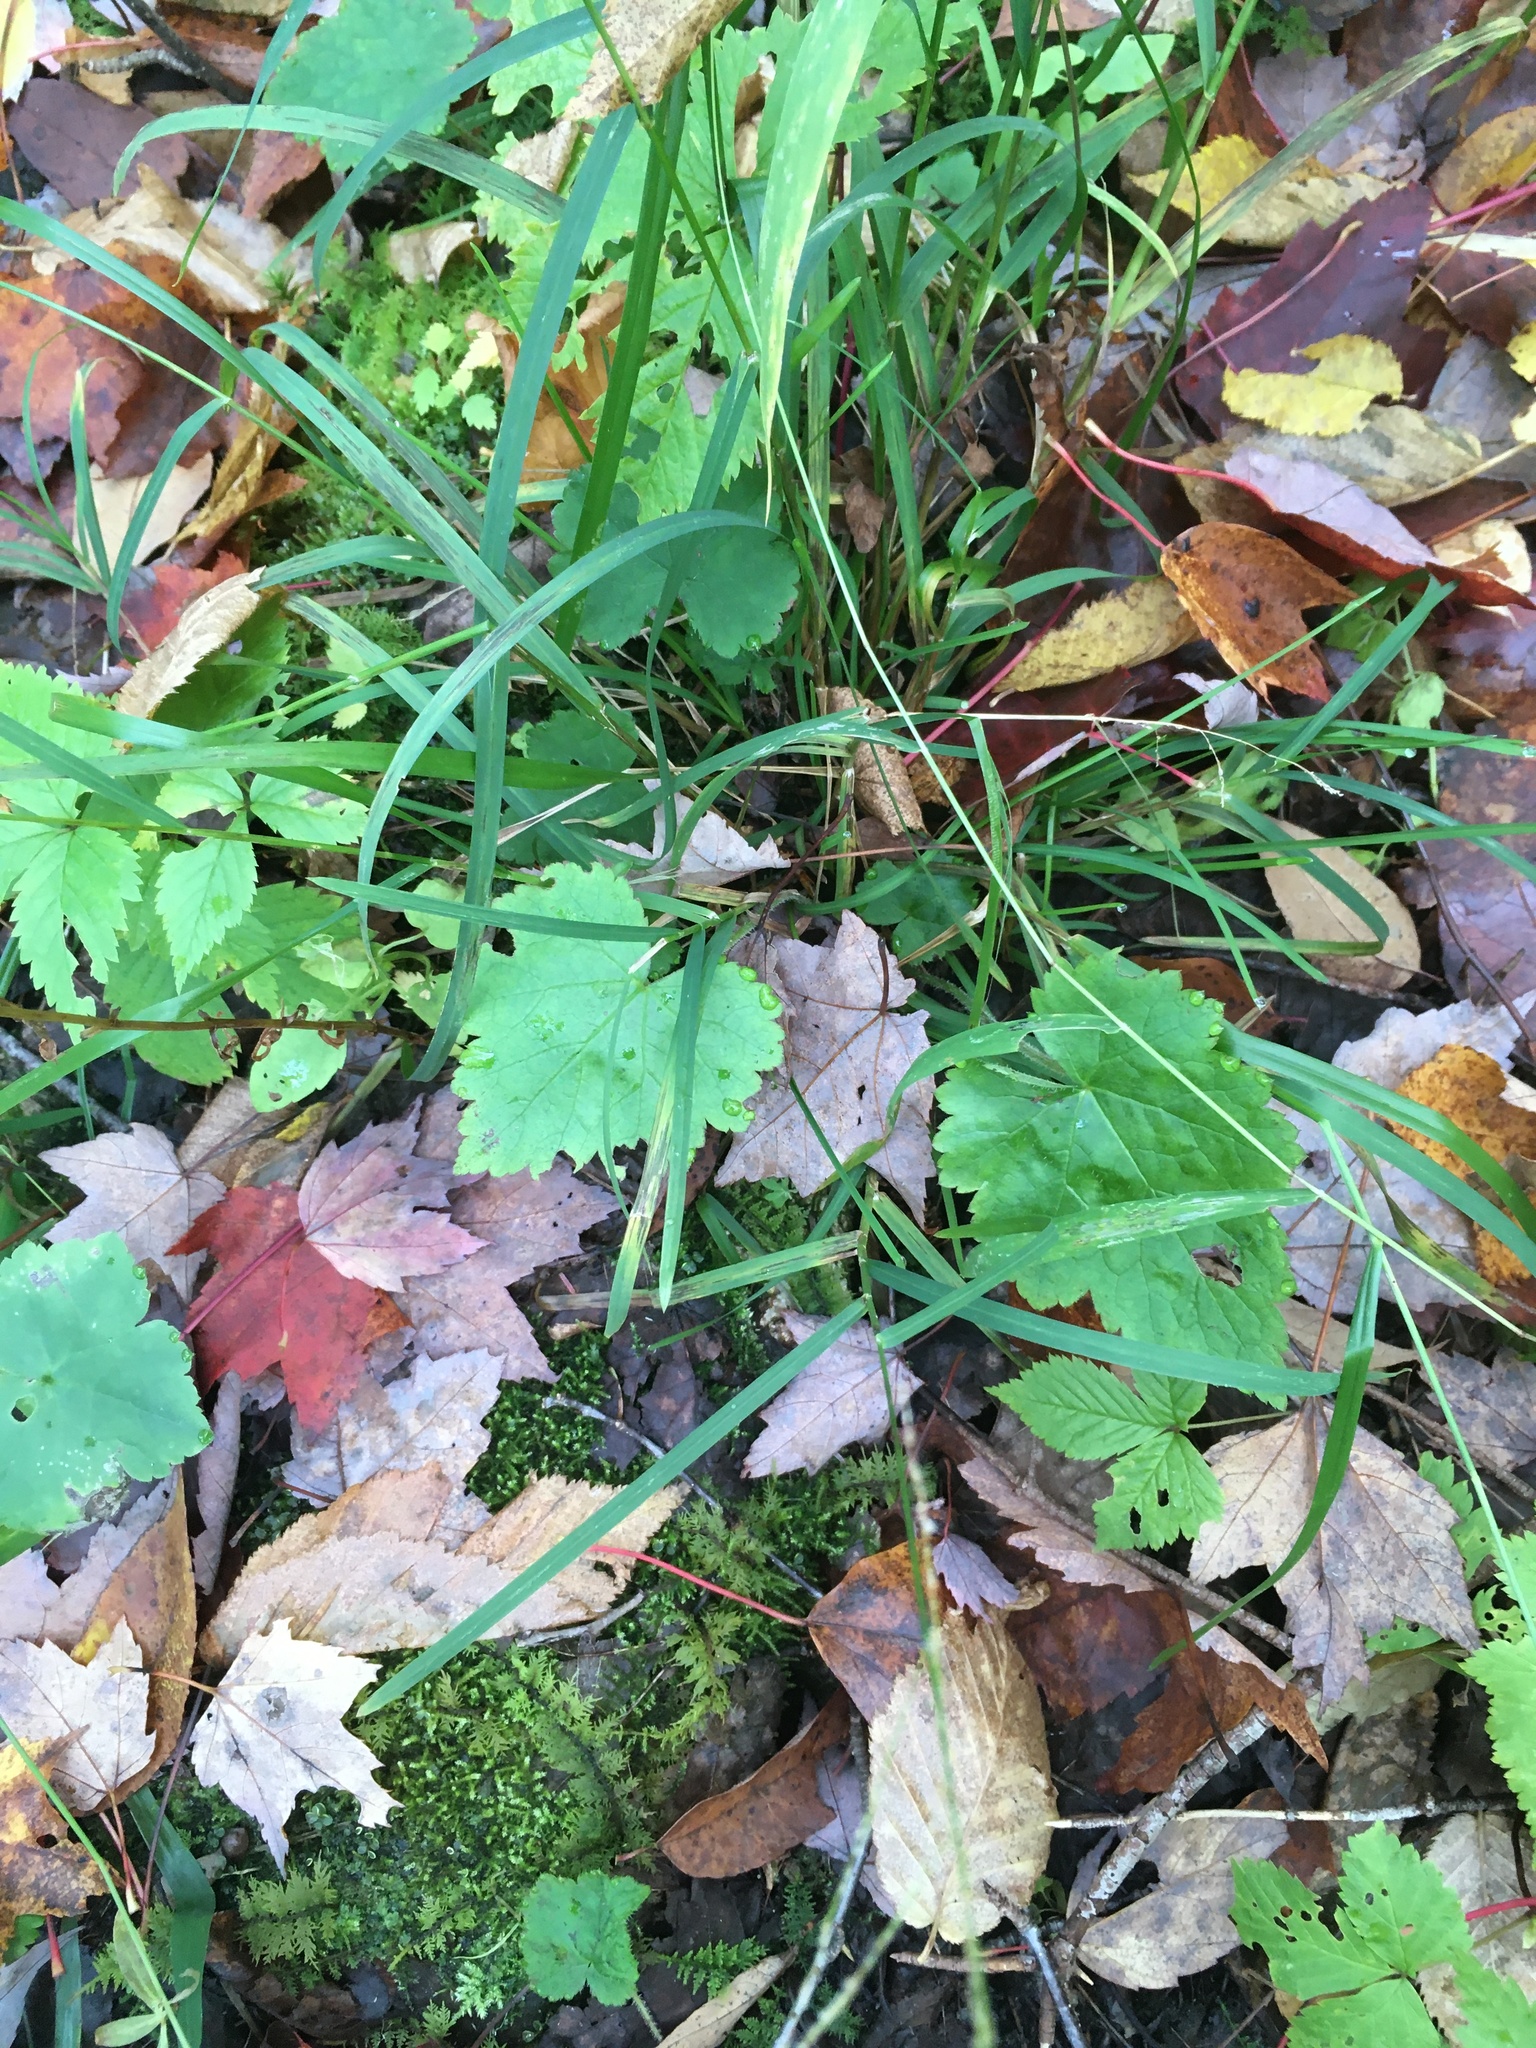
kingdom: Plantae
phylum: Tracheophyta
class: Magnoliopsida
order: Saxifragales
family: Saxifragaceae
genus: Tiarella
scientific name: Tiarella stolonifera
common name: Stoloniferous foamflower
